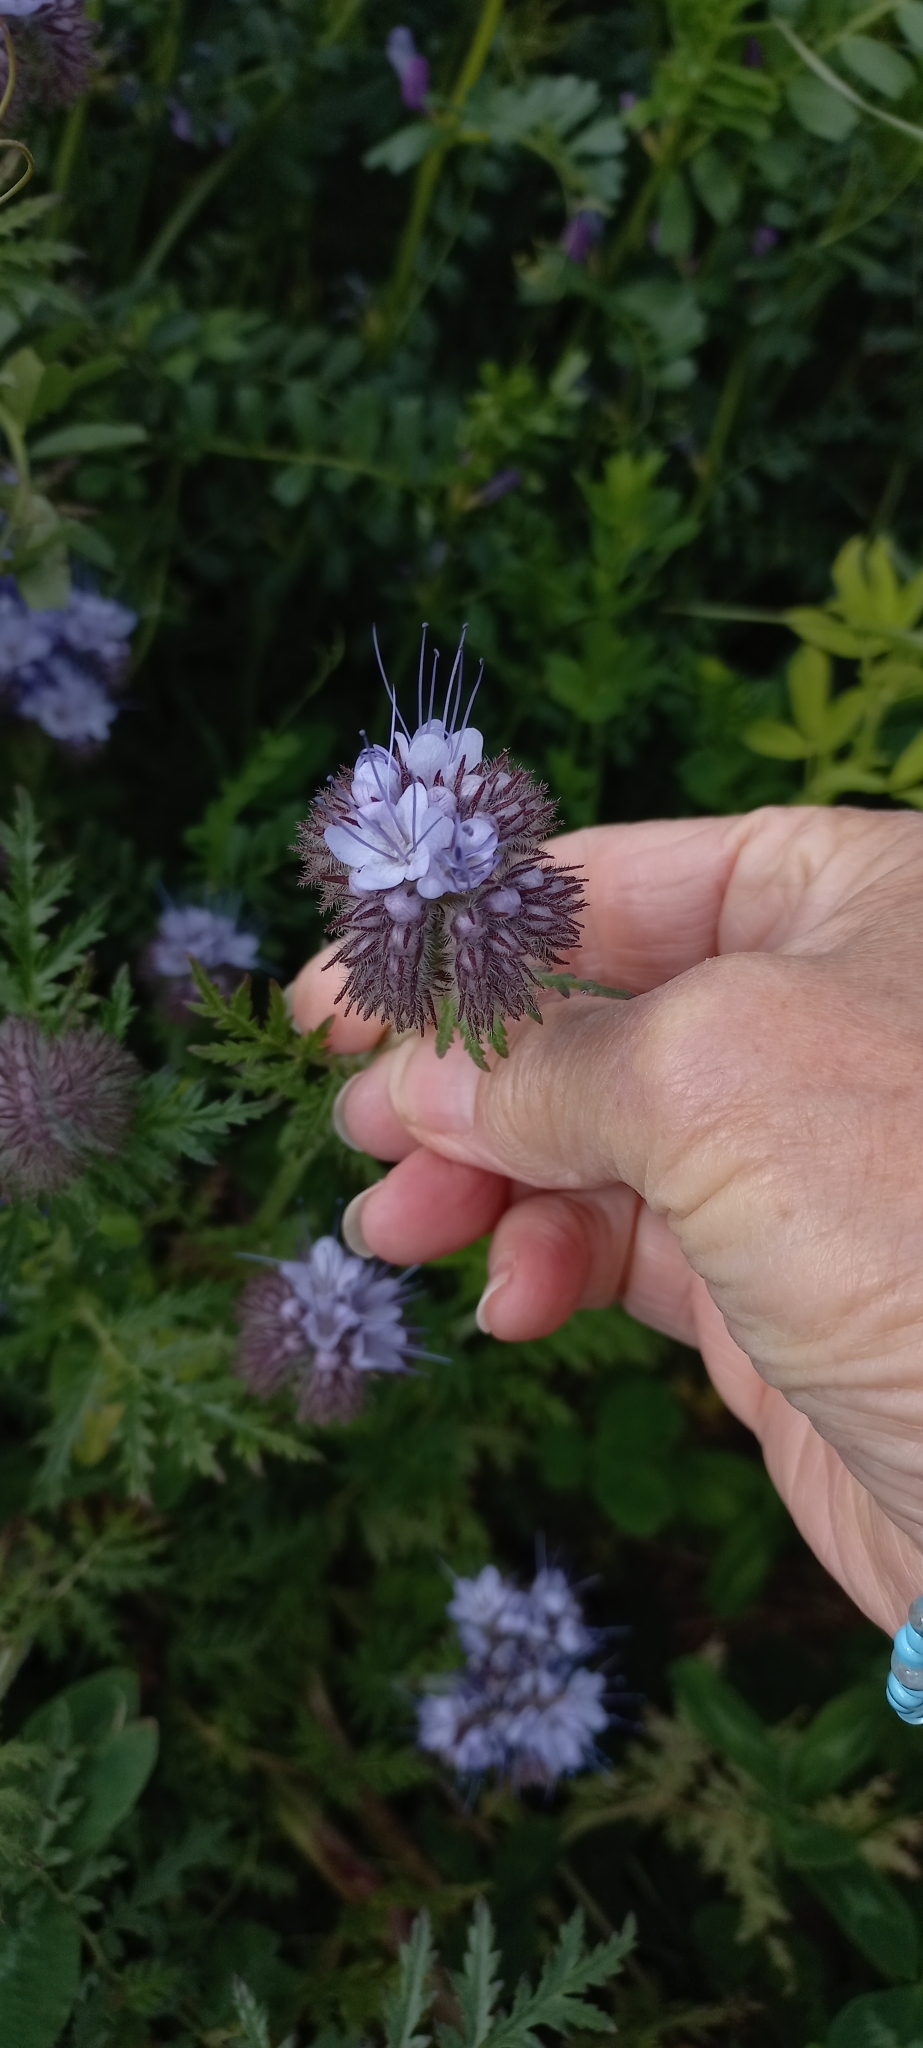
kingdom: Plantae
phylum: Tracheophyta
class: Magnoliopsida
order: Boraginales
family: Hydrophyllaceae
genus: Phacelia
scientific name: Phacelia tanacetifolia
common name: Phacelia
